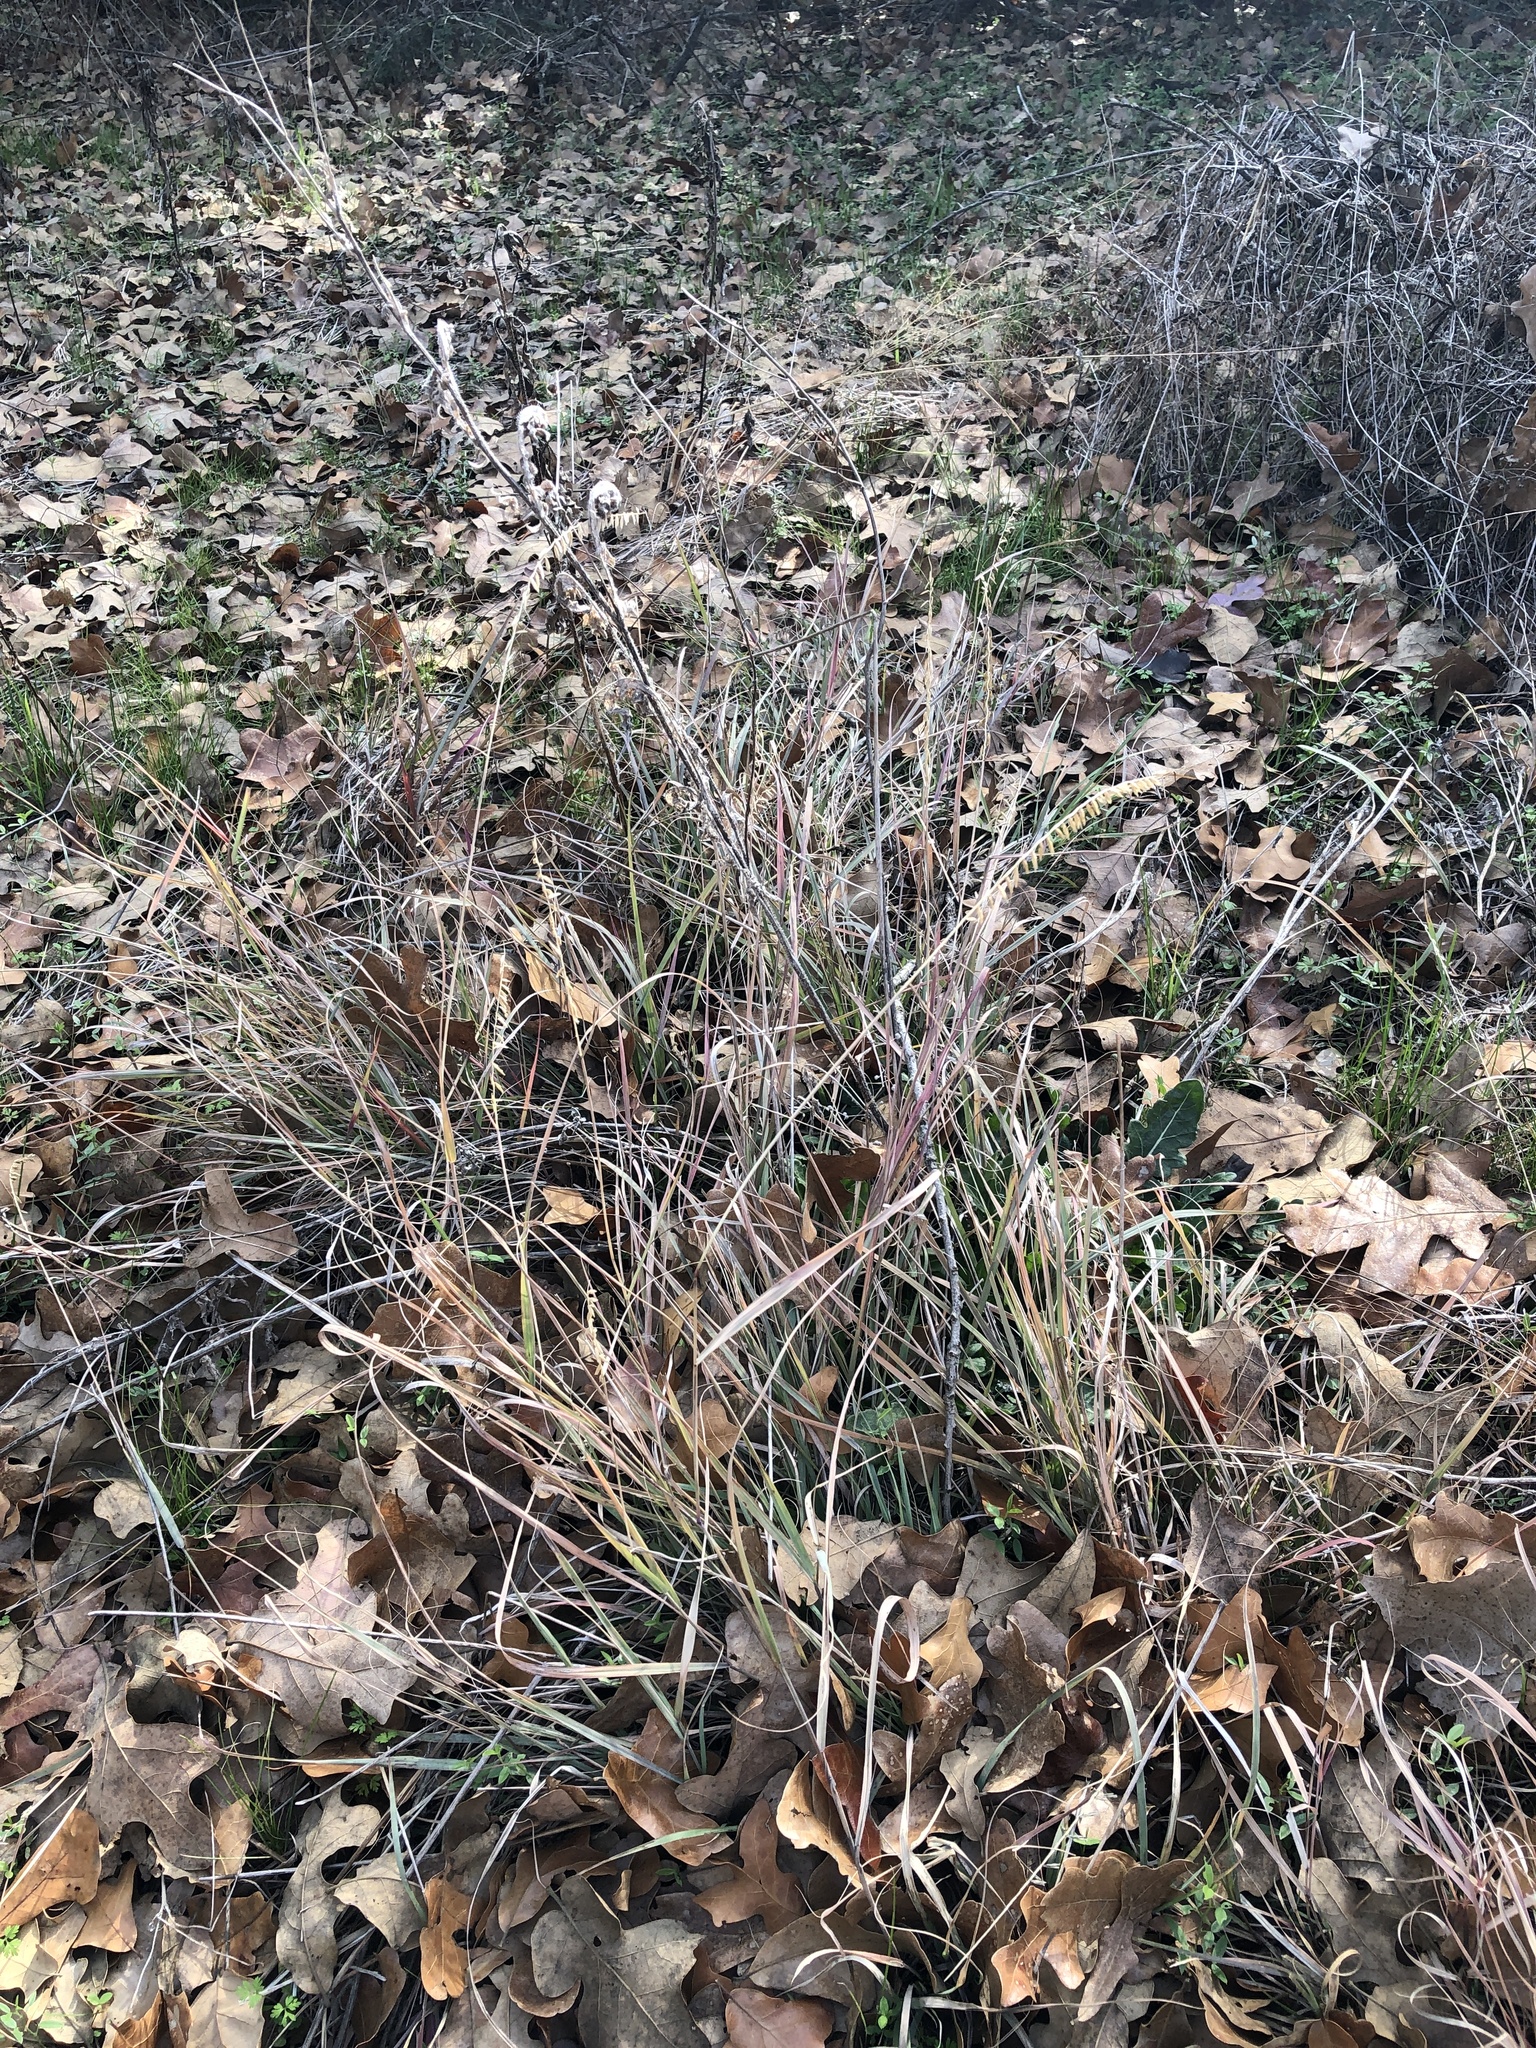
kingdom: Plantae
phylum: Tracheophyta
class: Liliopsida
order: Poales
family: Poaceae
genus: Bouteloua
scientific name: Bouteloua curtipendula
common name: Side-oats grama
